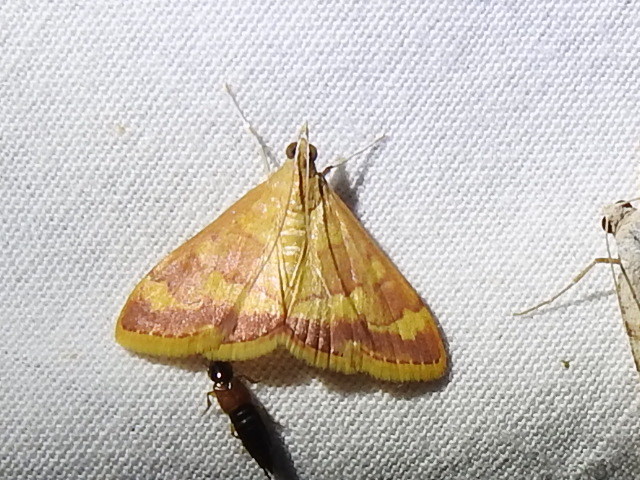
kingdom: Animalia
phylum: Arthropoda
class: Insecta
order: Lepidoptera
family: Crambidae
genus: Pyrausta
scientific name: Pyrausta pseudonythesalis
